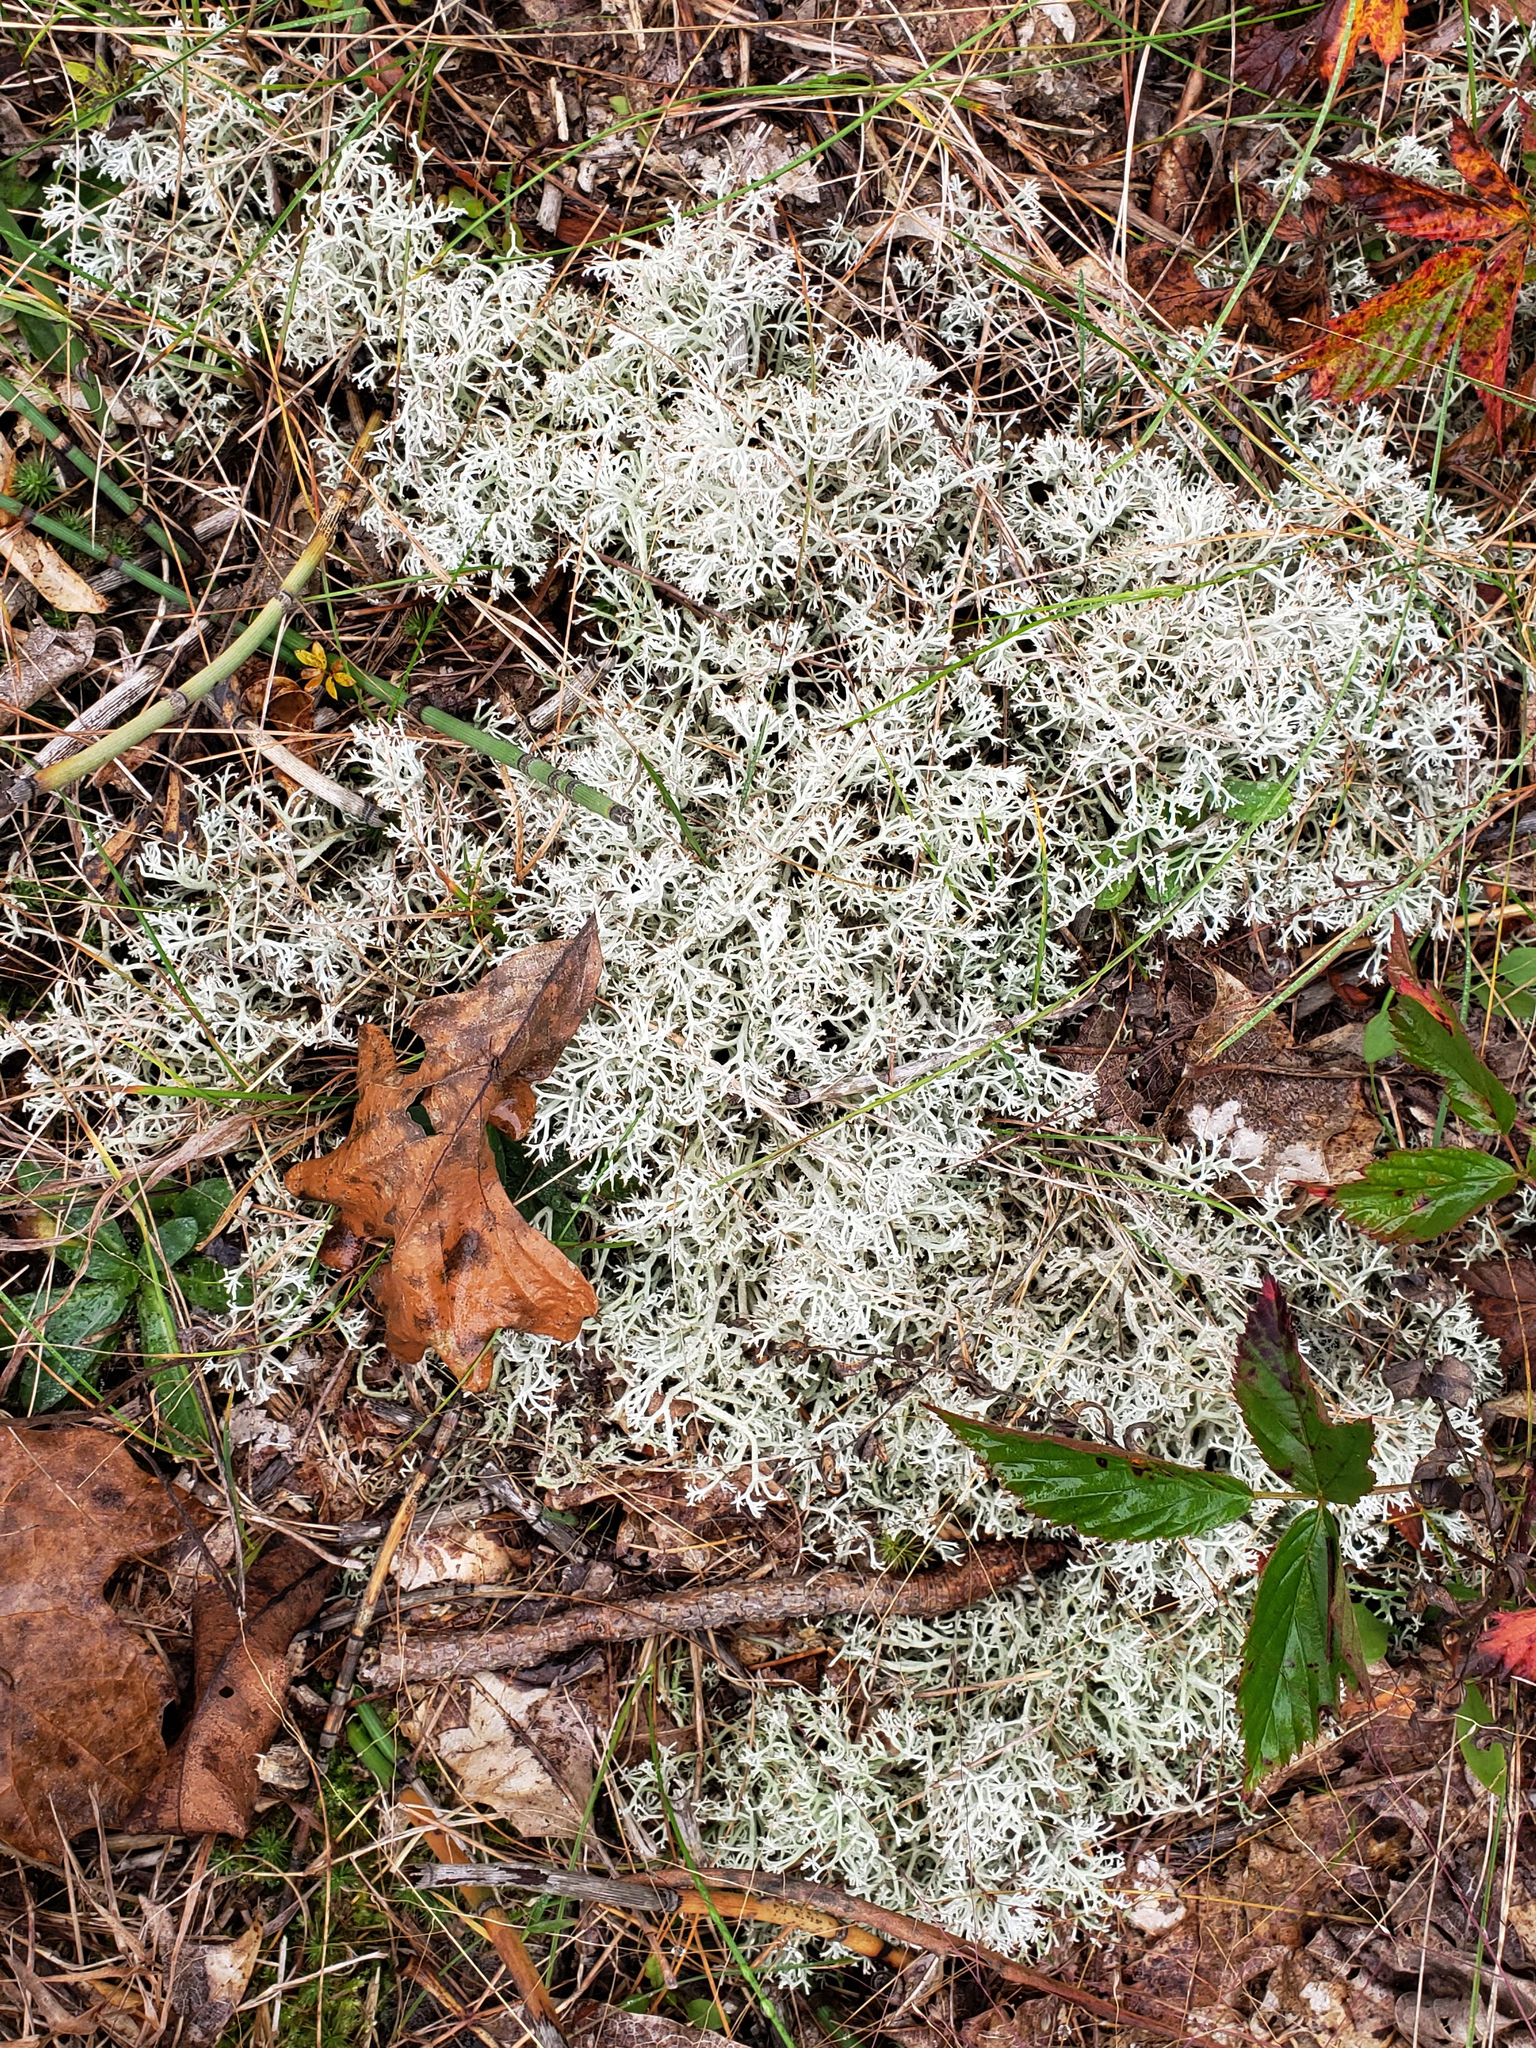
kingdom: Fungi
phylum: Ascomycota
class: Lecanoromycetes
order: Lecanorales
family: Cladoniaceae
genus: Cladonia
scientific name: Cladonia rangiferina
